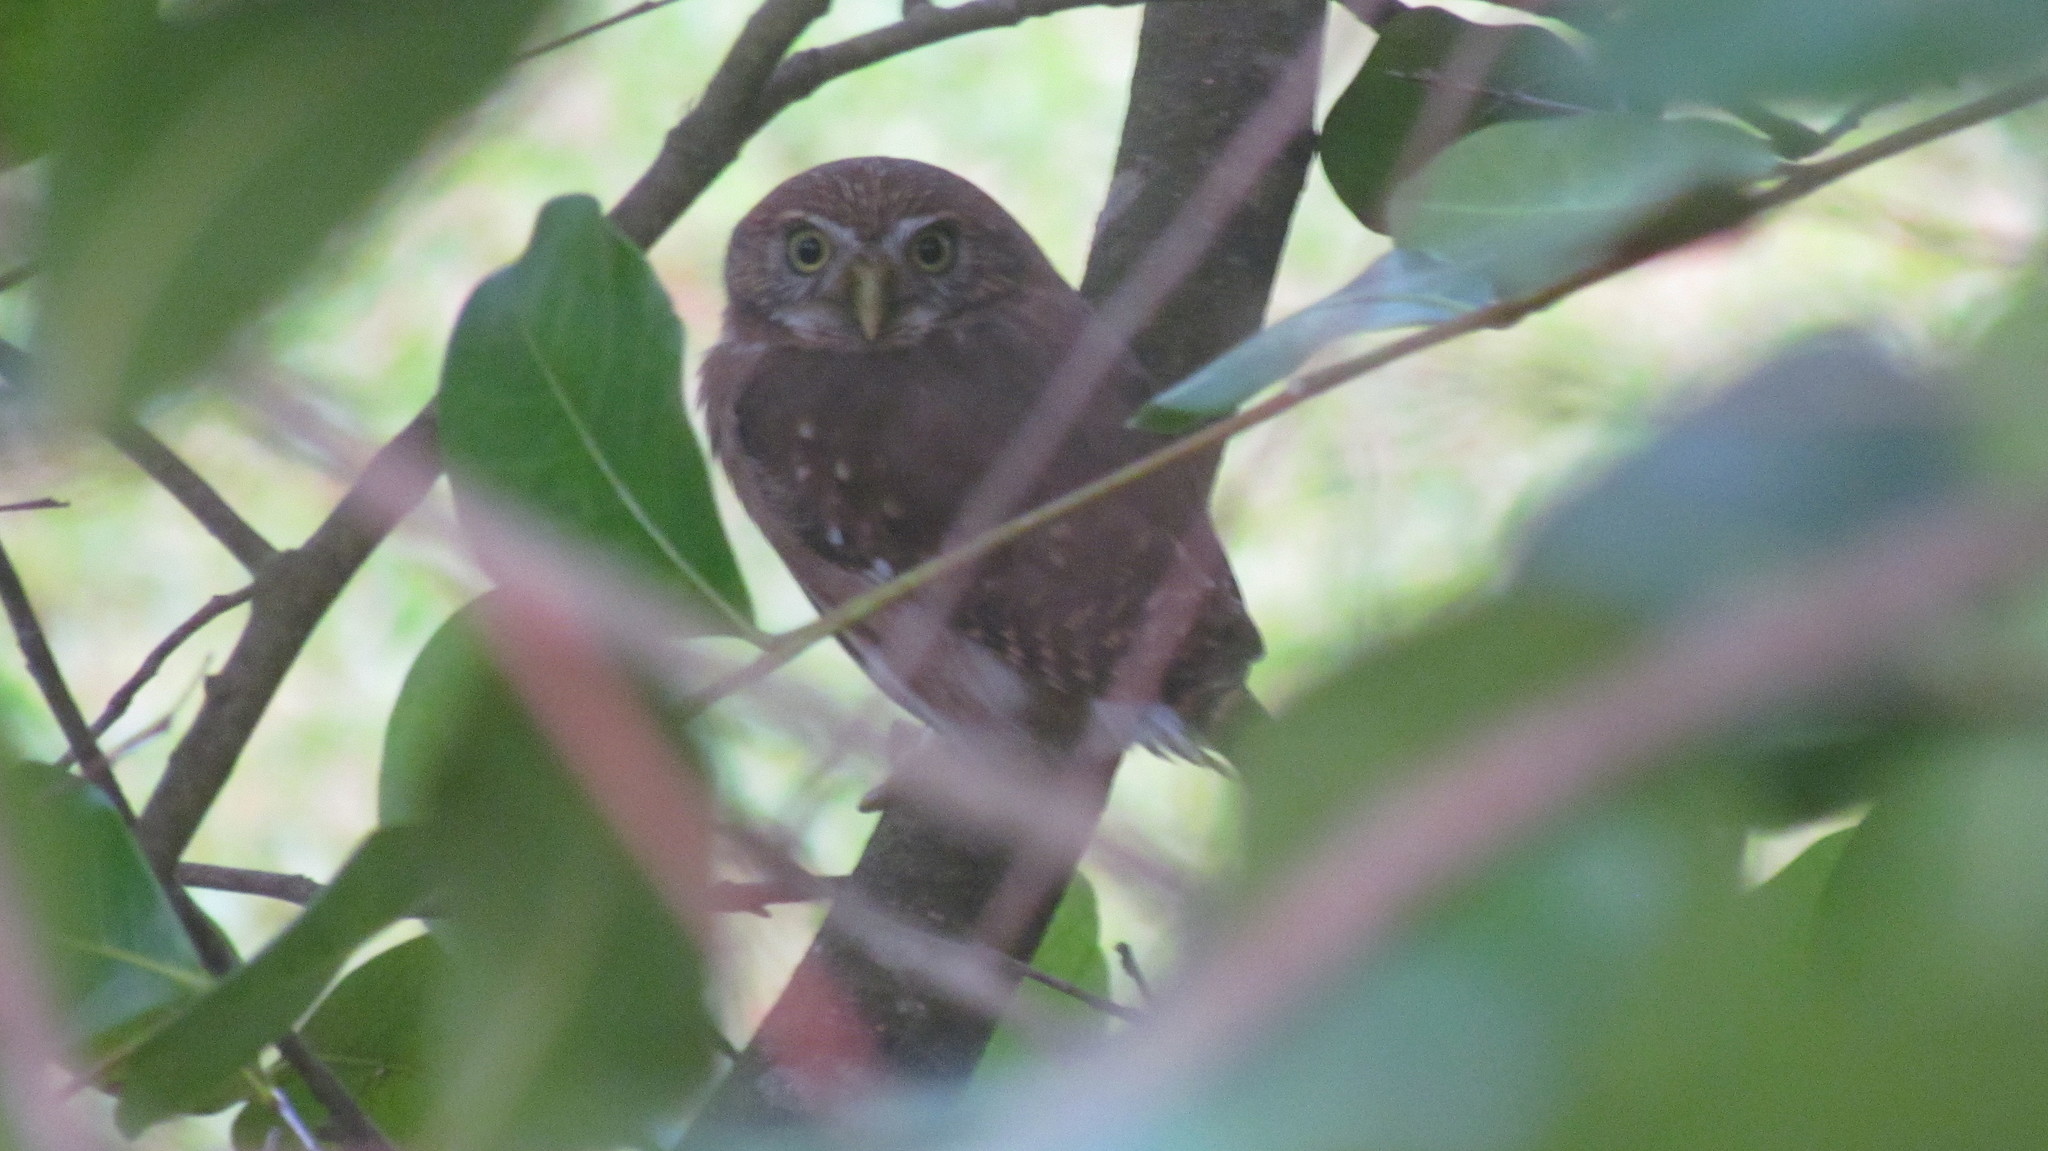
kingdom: Animalia
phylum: Chordata
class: Aves
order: Strigiformes
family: Strigidae
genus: Glaucidium
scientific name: Glaucidium brasilianum
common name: Ferruginous pygmy-owl
